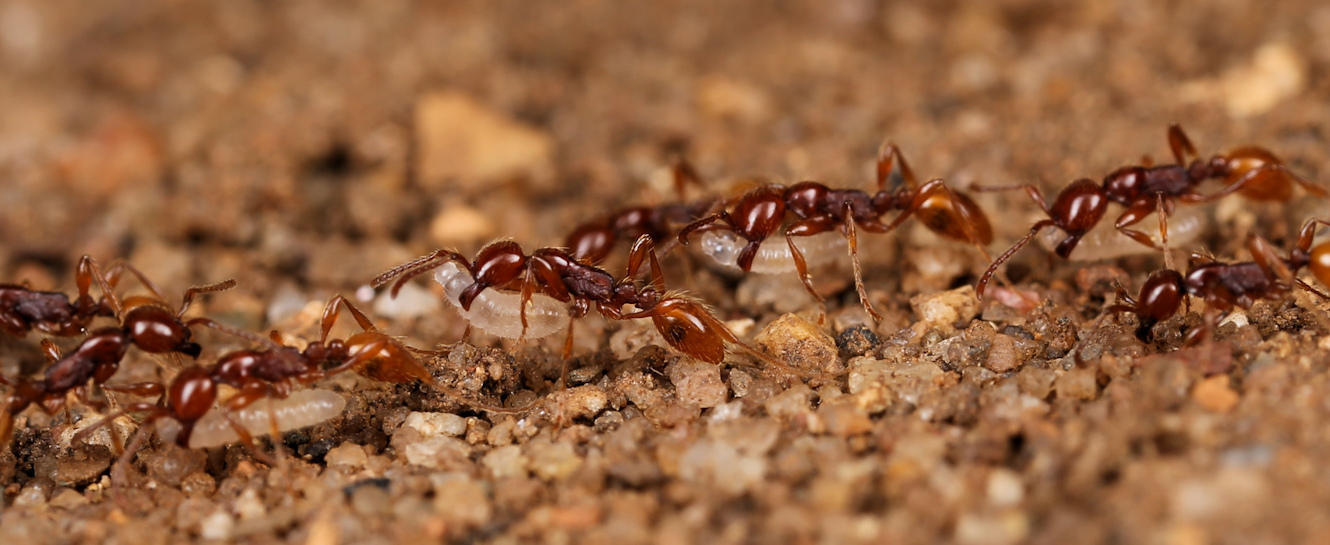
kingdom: Animalia
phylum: Arthropoda
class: Insecta
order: Hymenoptera
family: Formicidae
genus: Aenictus
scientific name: Aenictus eugenii
